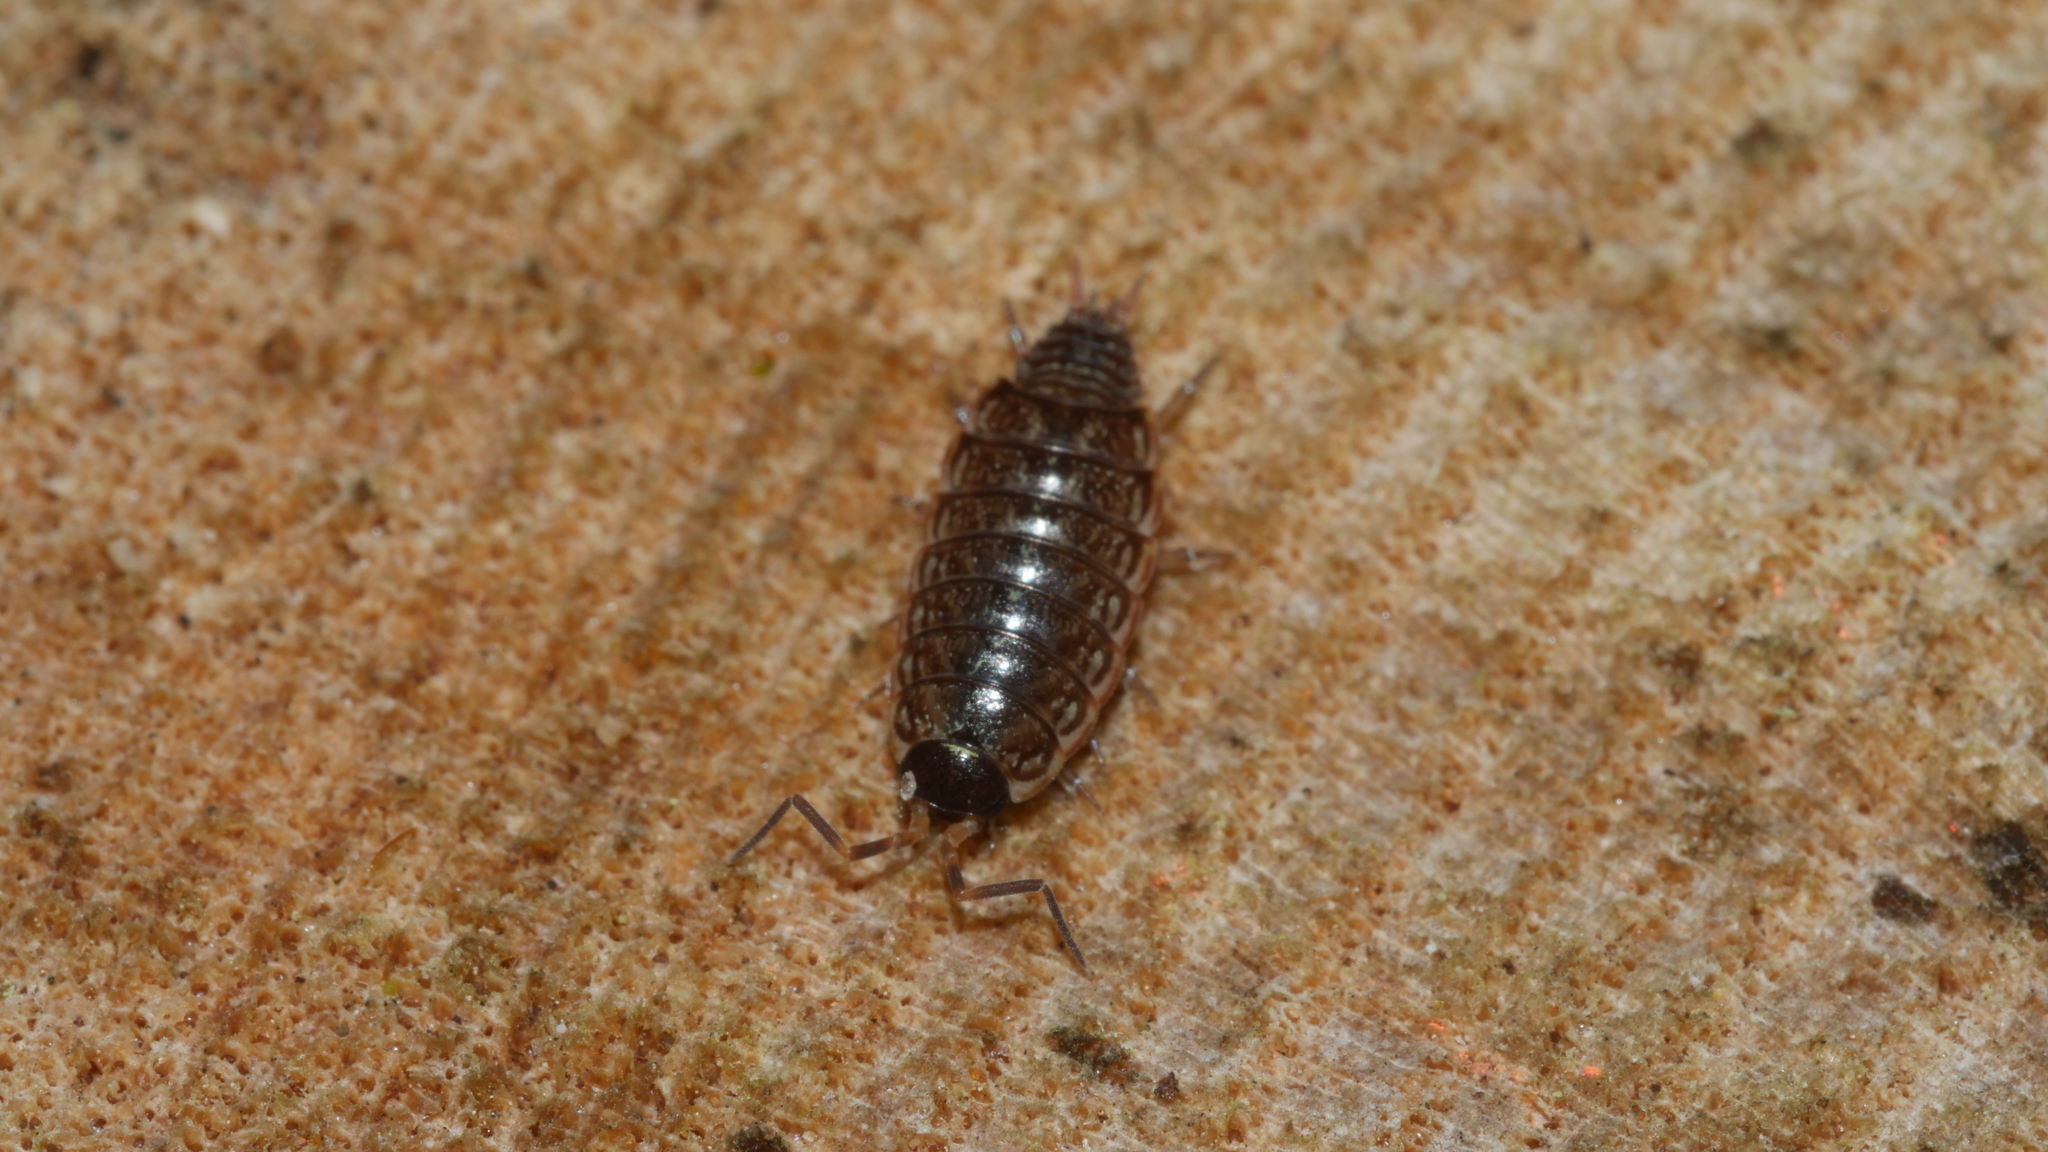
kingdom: Animalia
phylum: Arthropoda
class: Malacostraca
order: Isopoda
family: Philosciidae
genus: Philoscia
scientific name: Philoscia muscorum
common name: Common striped woodlouse
